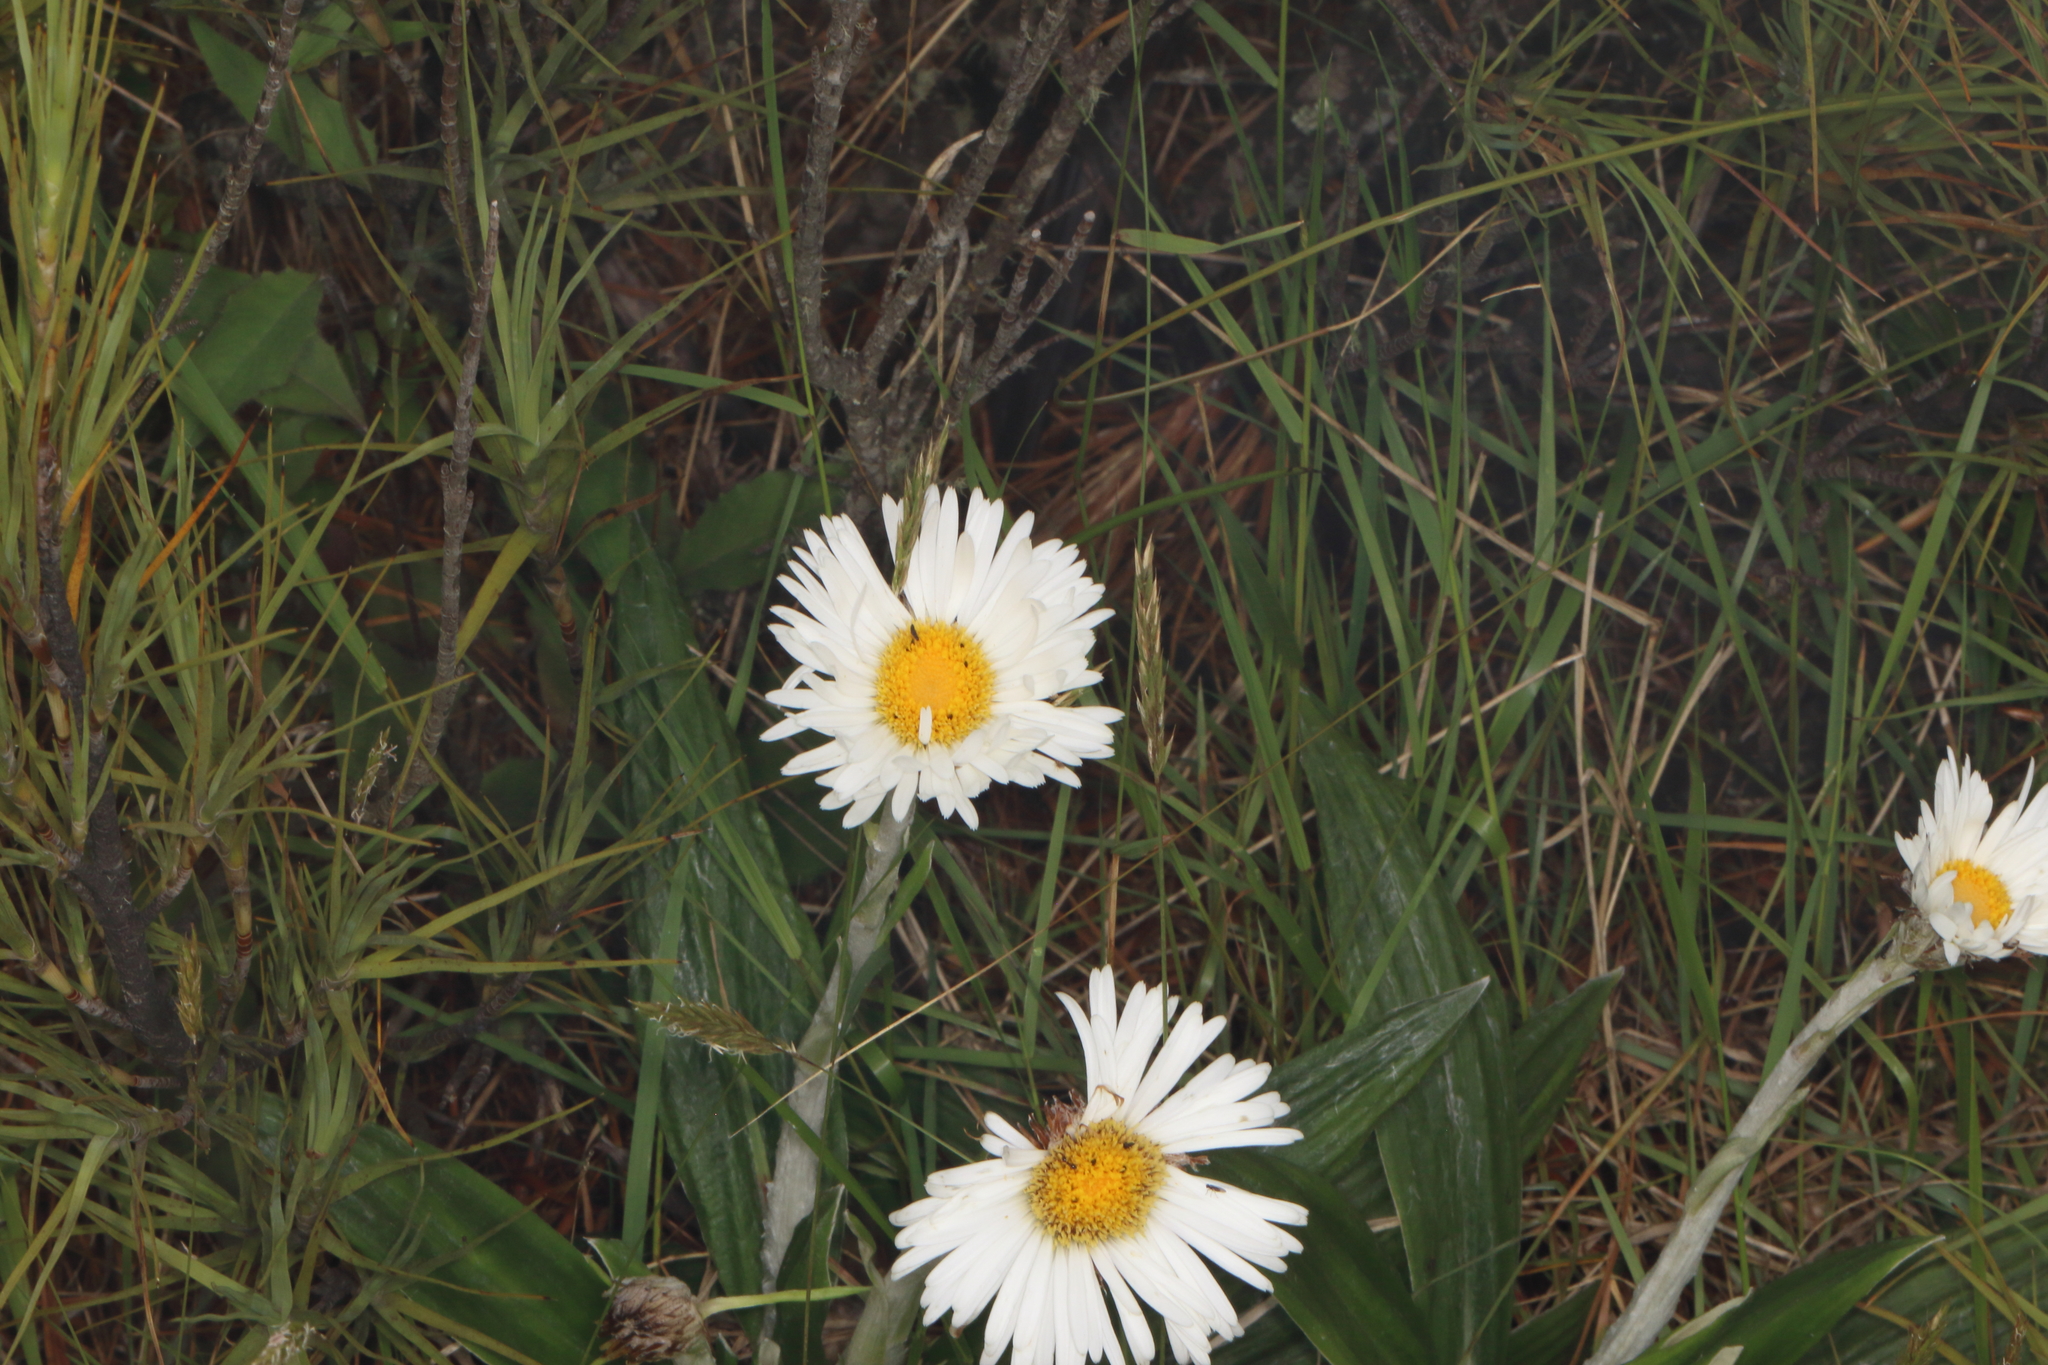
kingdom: Plantae
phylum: Tracheophyta
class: Magnoliopsida
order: Asterales
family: Asteraceae
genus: Celmisia
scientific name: Celmisia spectabilis
